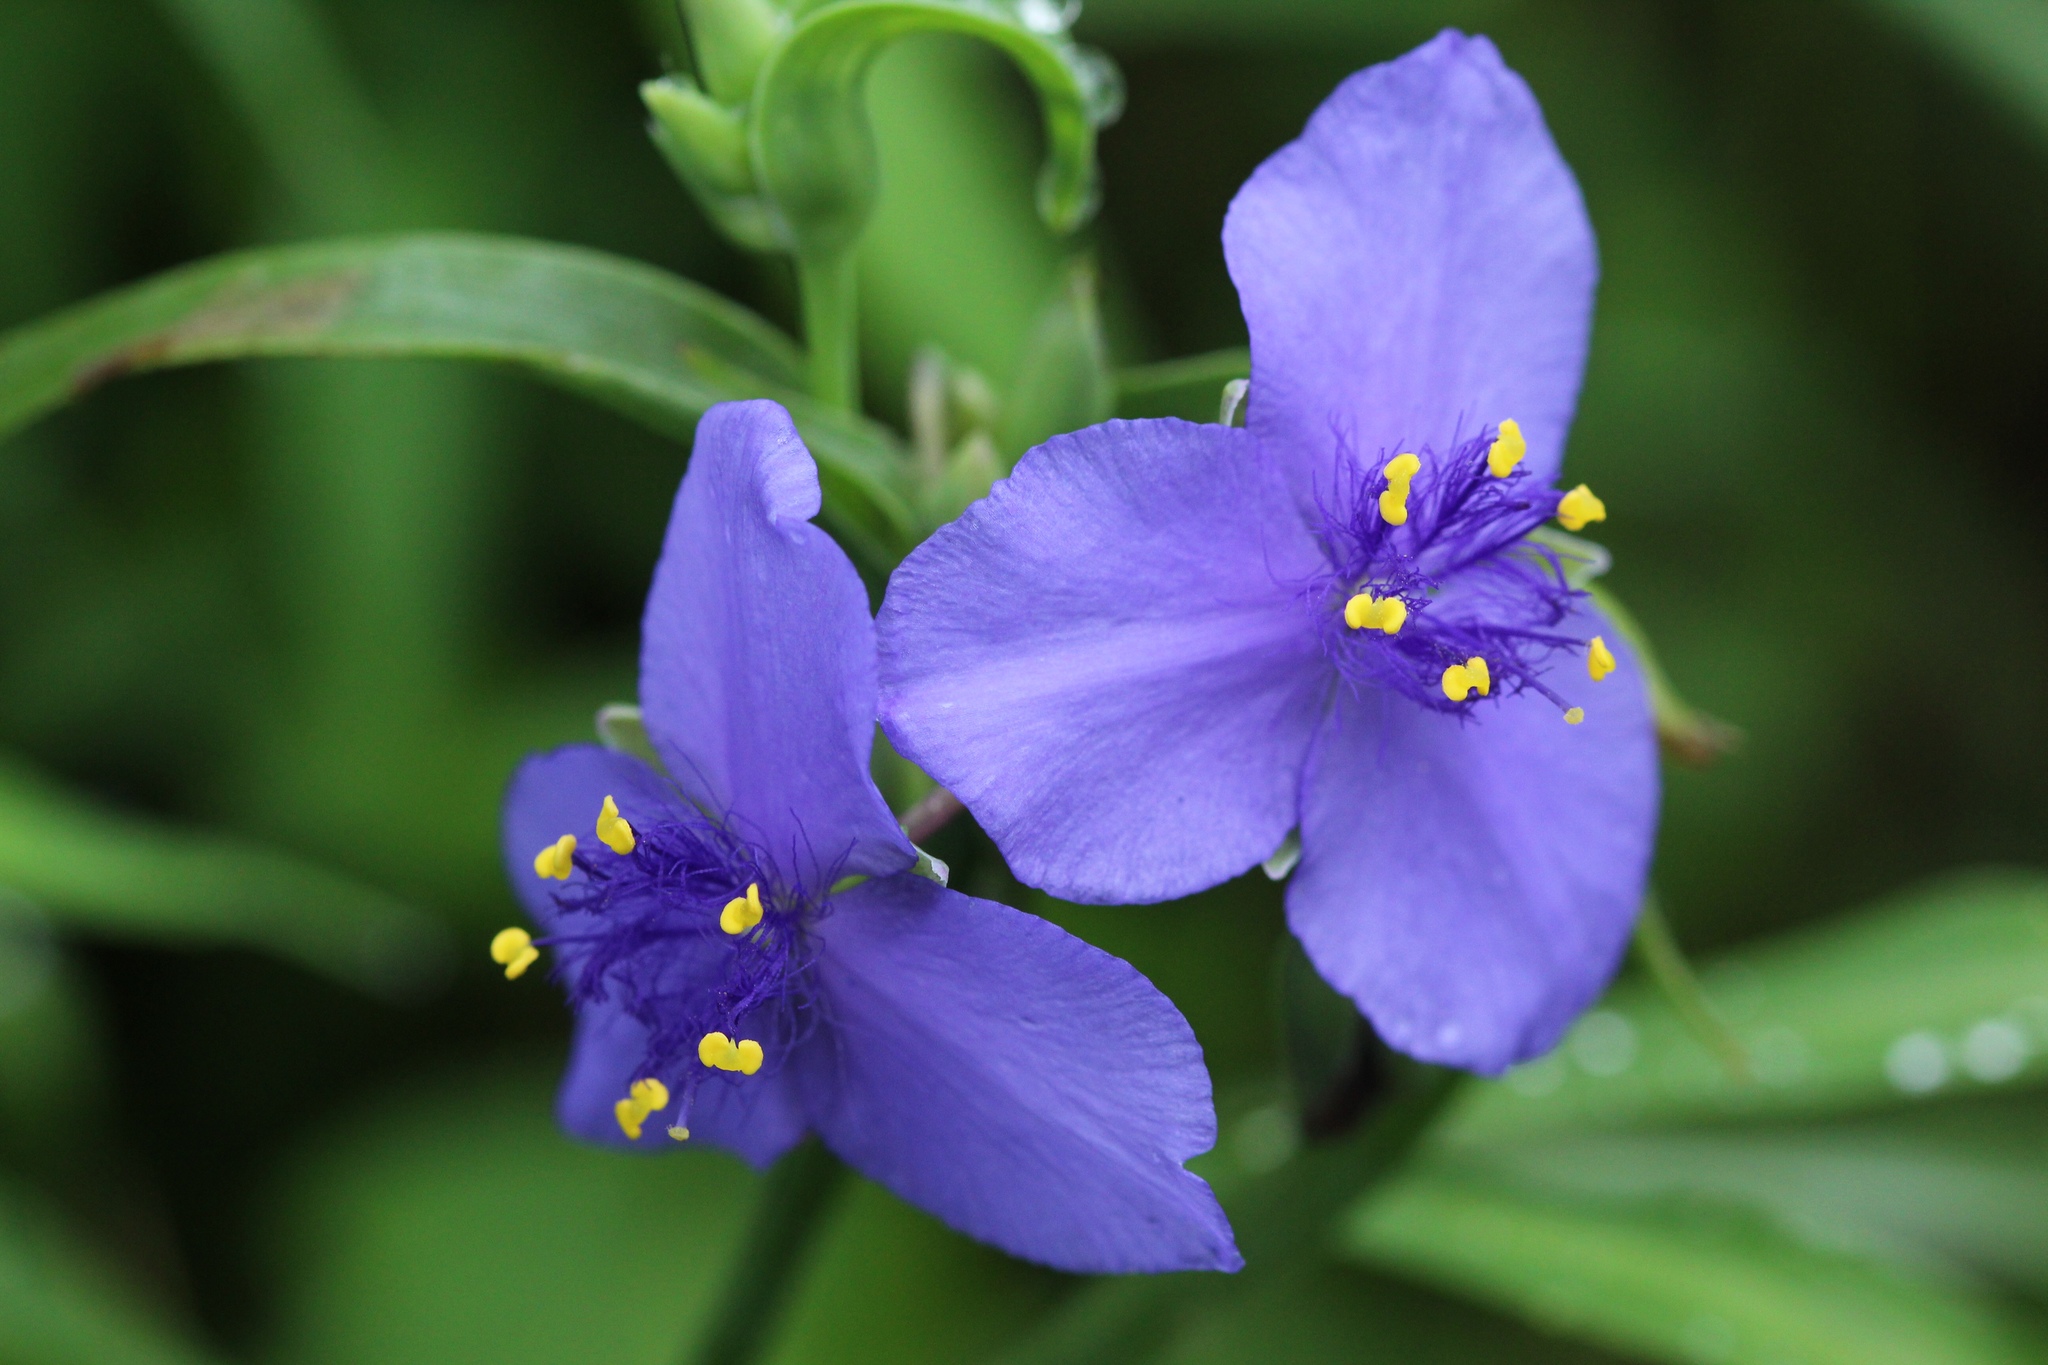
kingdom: Plantae
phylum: Tracheophyta
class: Liliopsida
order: Commelinales
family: Commelinaceae
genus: Tradescantia
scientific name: Tradescantia virginiana
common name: Spiderwort
